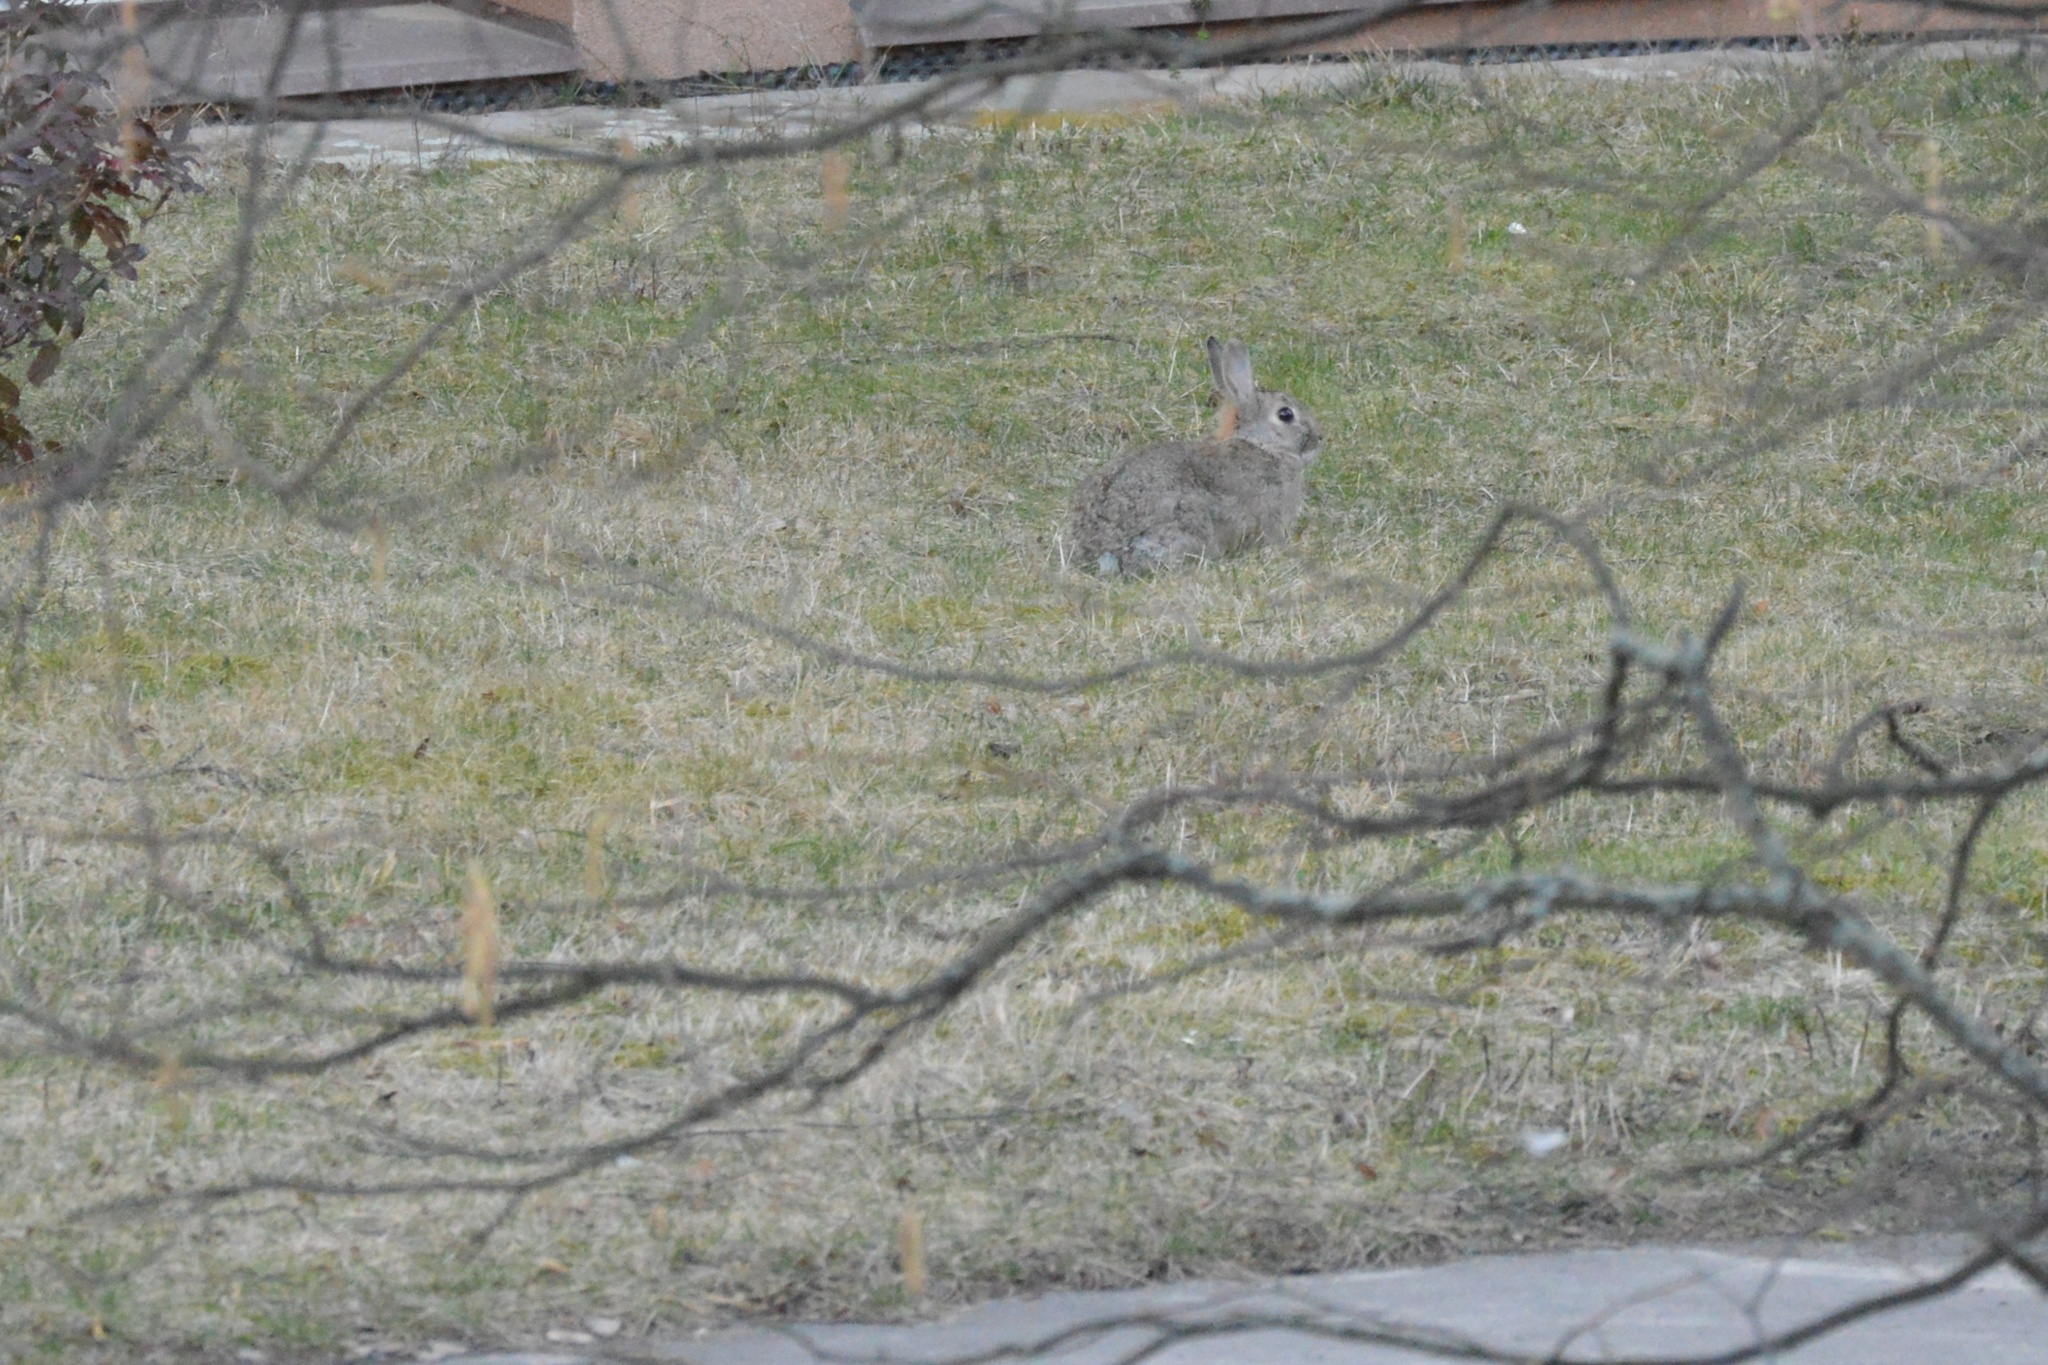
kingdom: Animalia
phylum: Chordata
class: Mammalia
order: Lagomorpha
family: Leporidae
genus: Oryctolagus
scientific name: Oryctolagus cuniculus
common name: European rabbit
